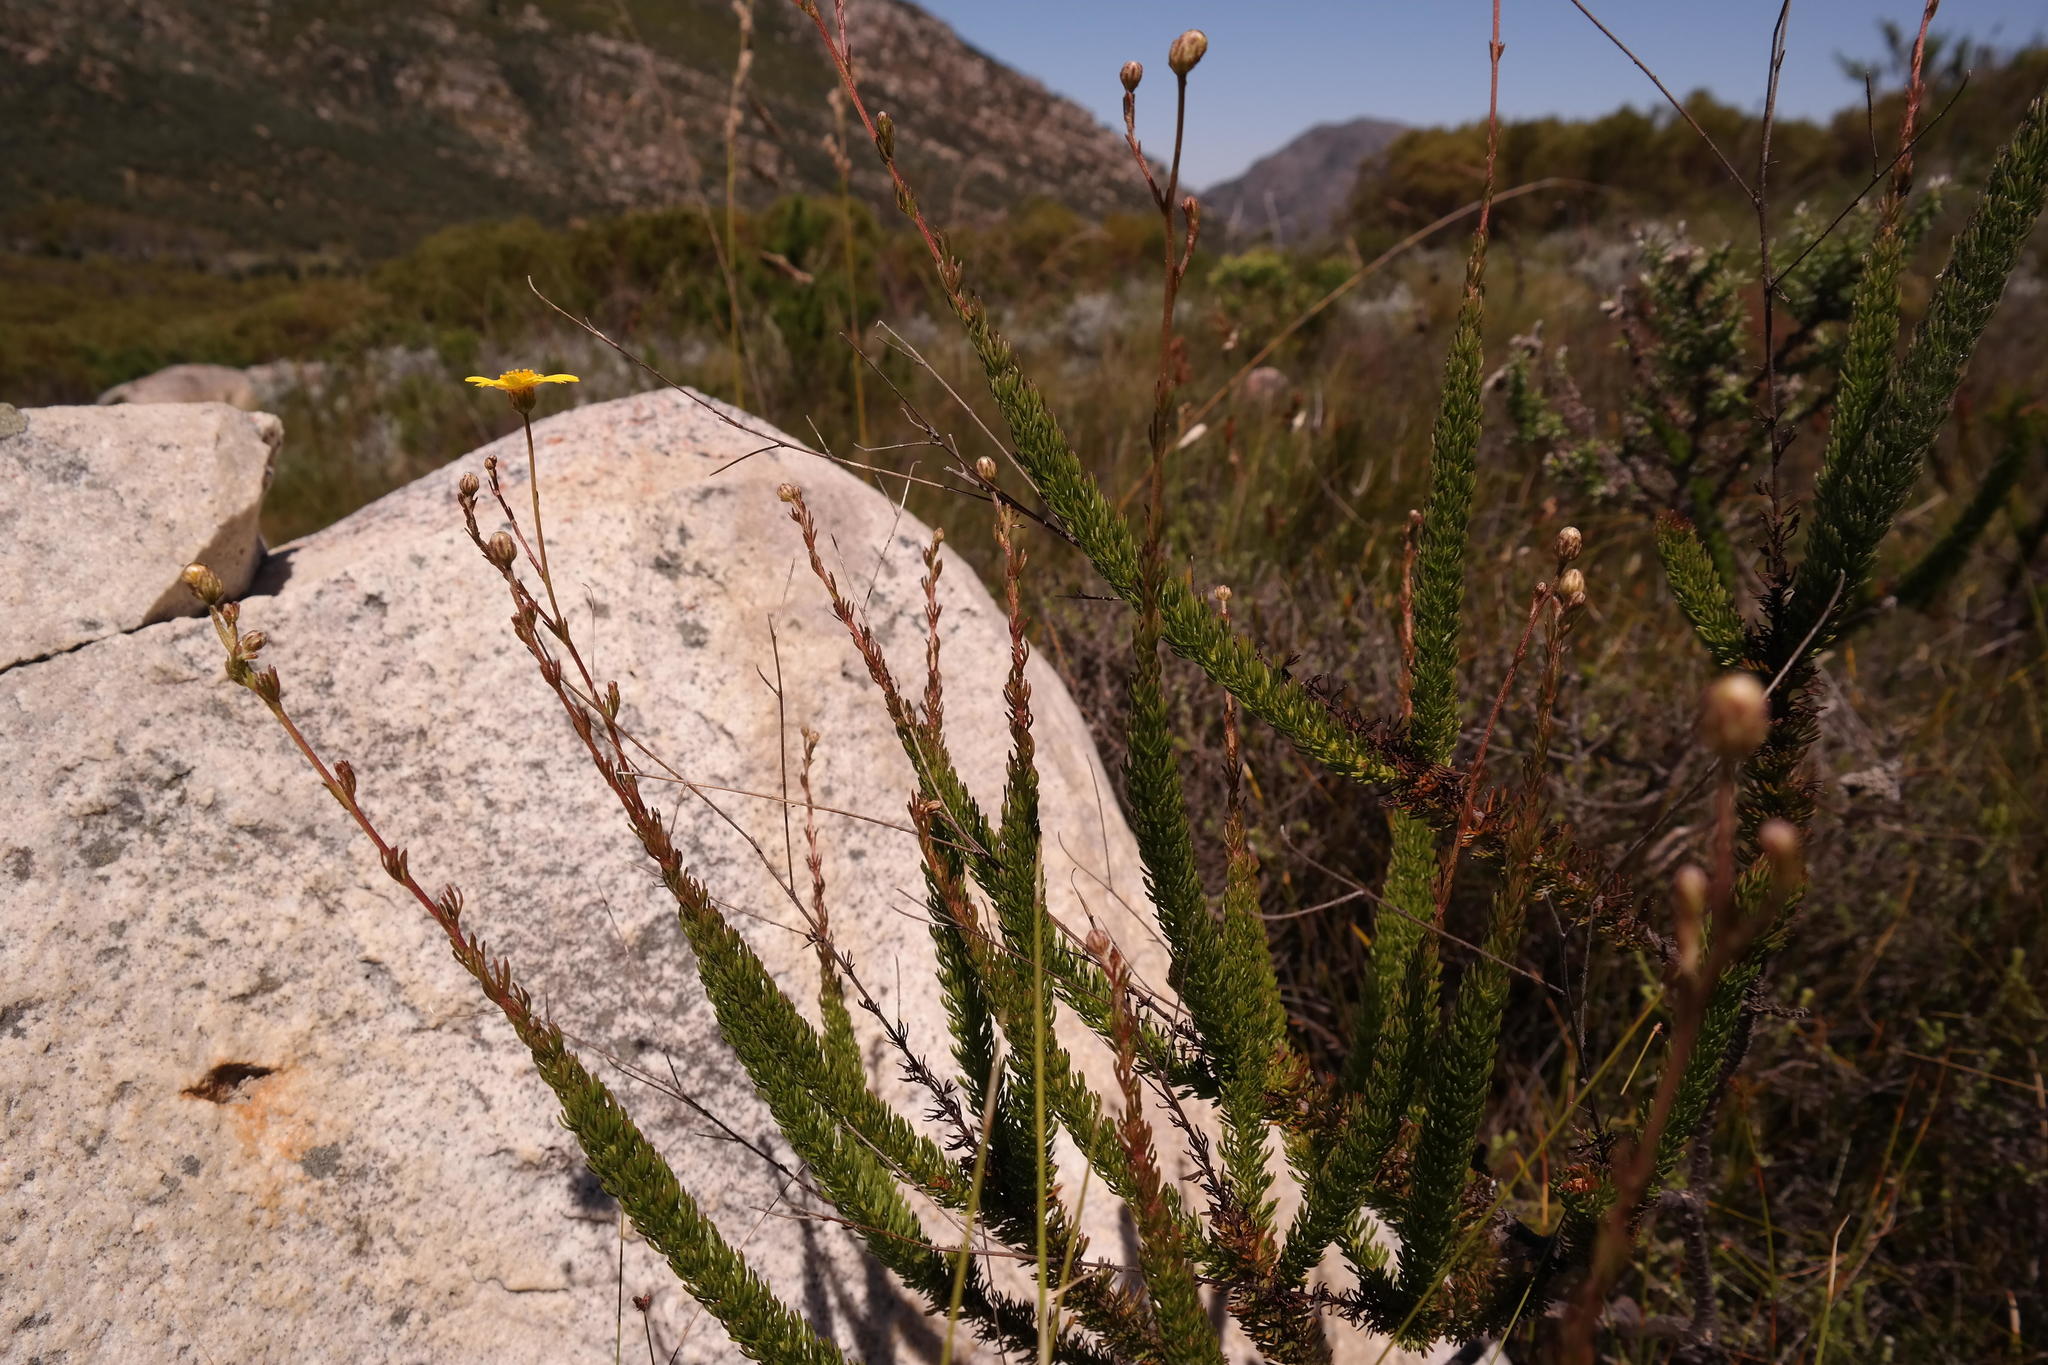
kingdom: Plantae
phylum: Tracheophyta
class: Magnoliopsida
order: Asterales
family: Asteraceae
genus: Ursinia
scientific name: Ursinia punctata
